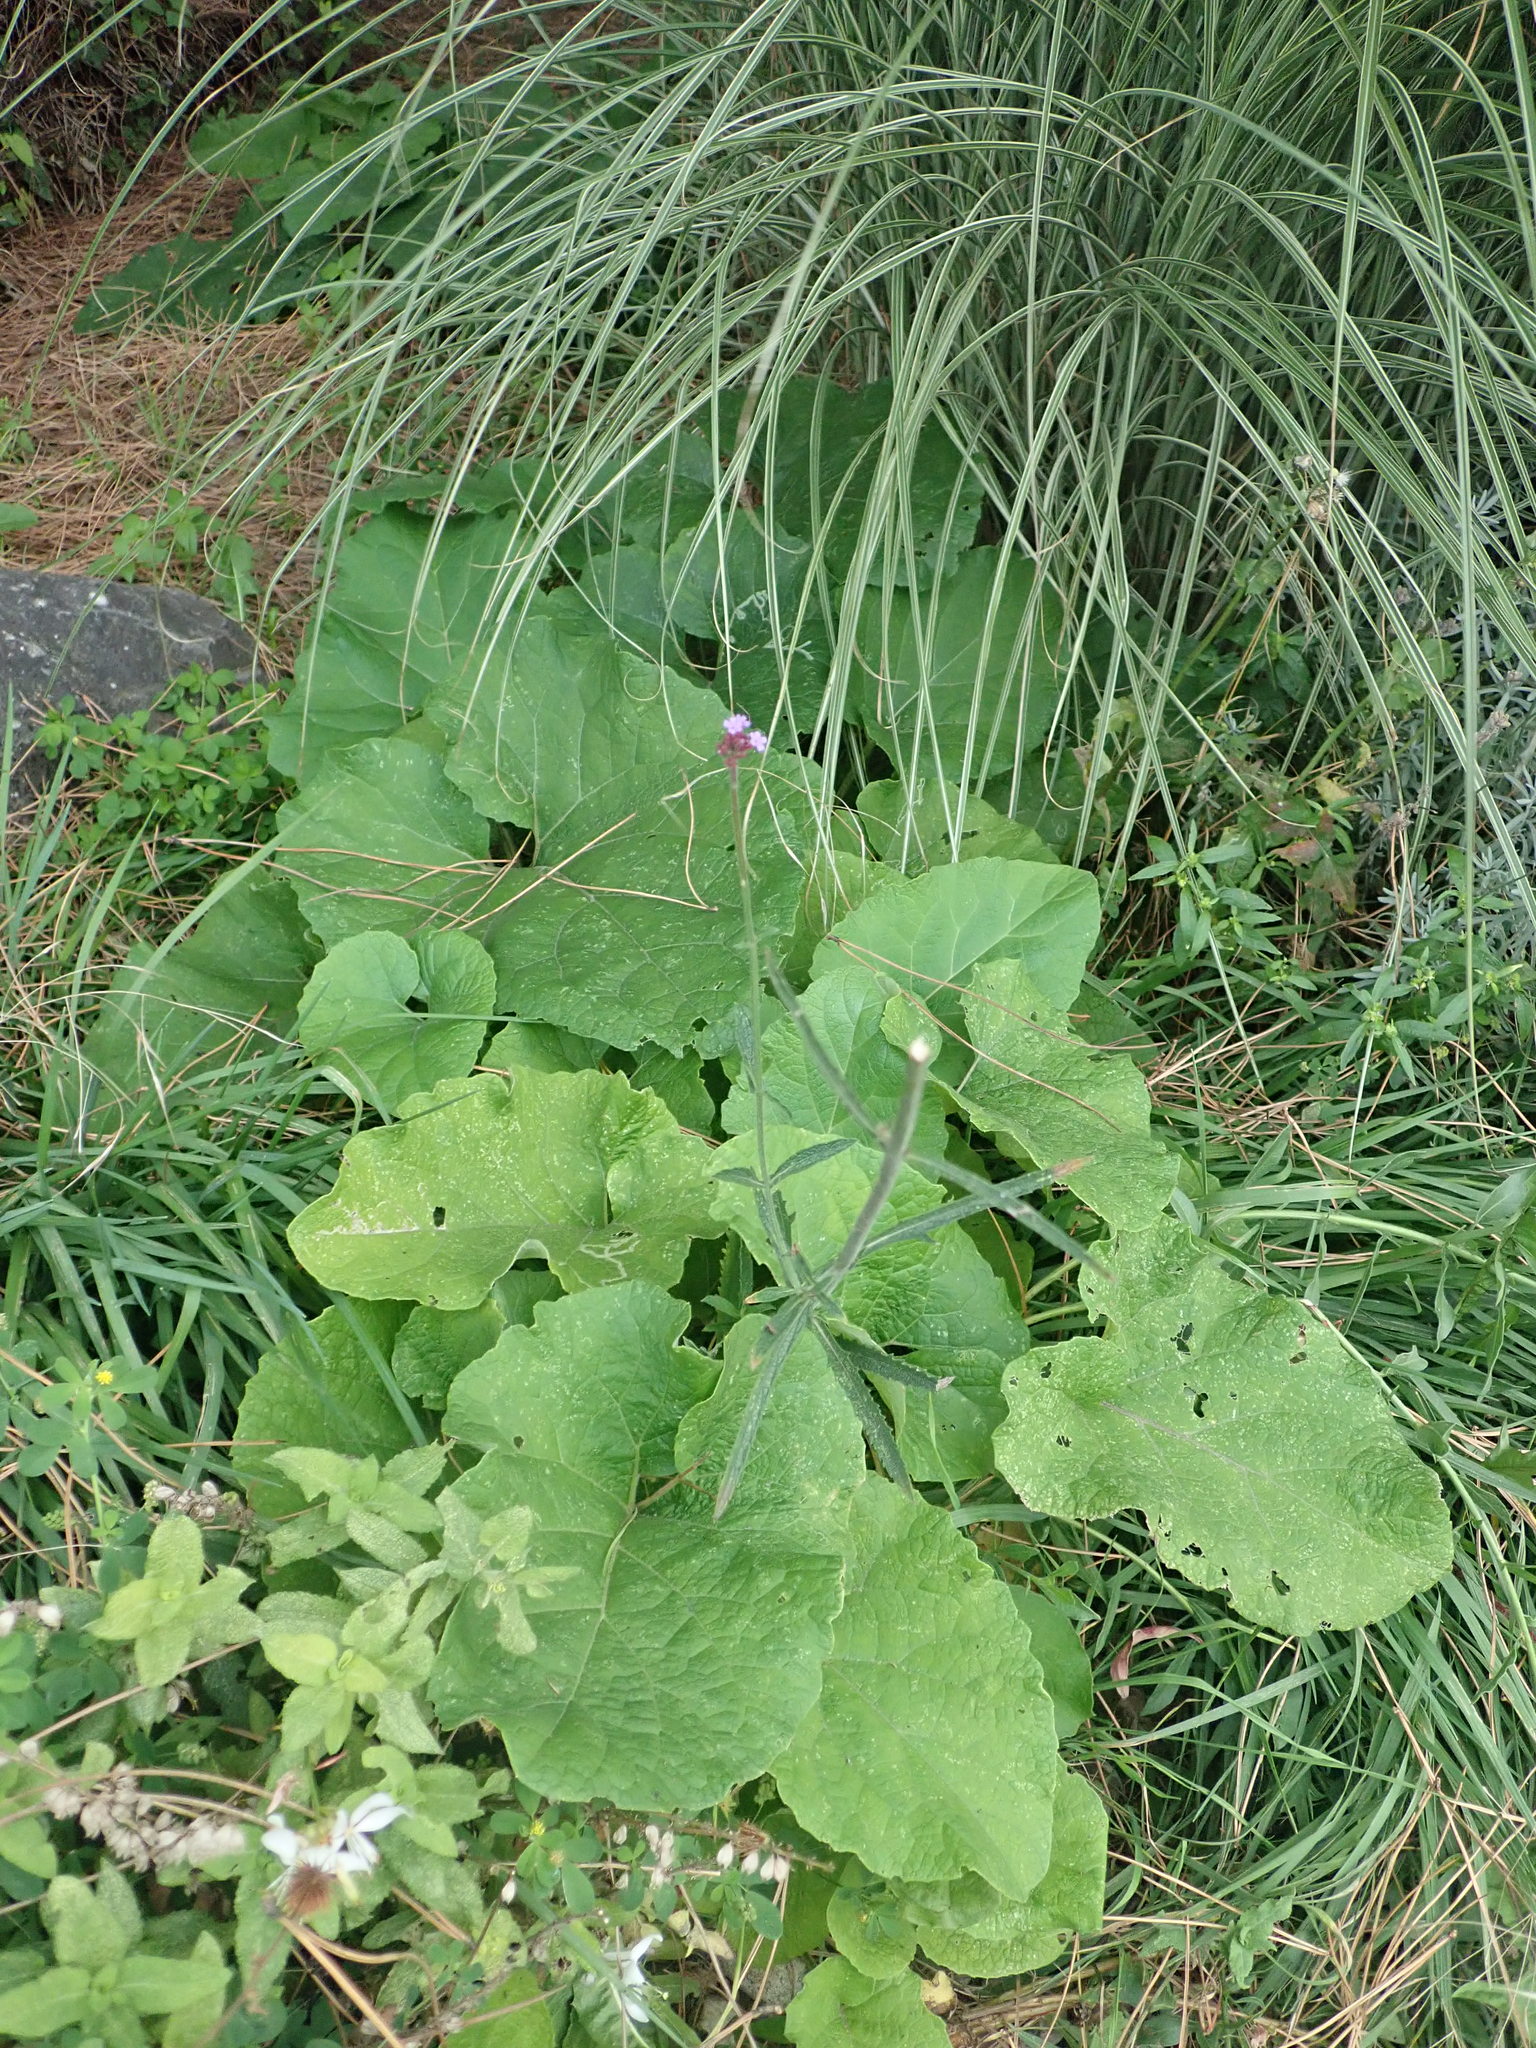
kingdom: Plantae
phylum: Tracheophyta
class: Magnoliopsida
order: Lamiales
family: Verbenaceae
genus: Verbena
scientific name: Verbena bonariensis
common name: Purpletop vervain
